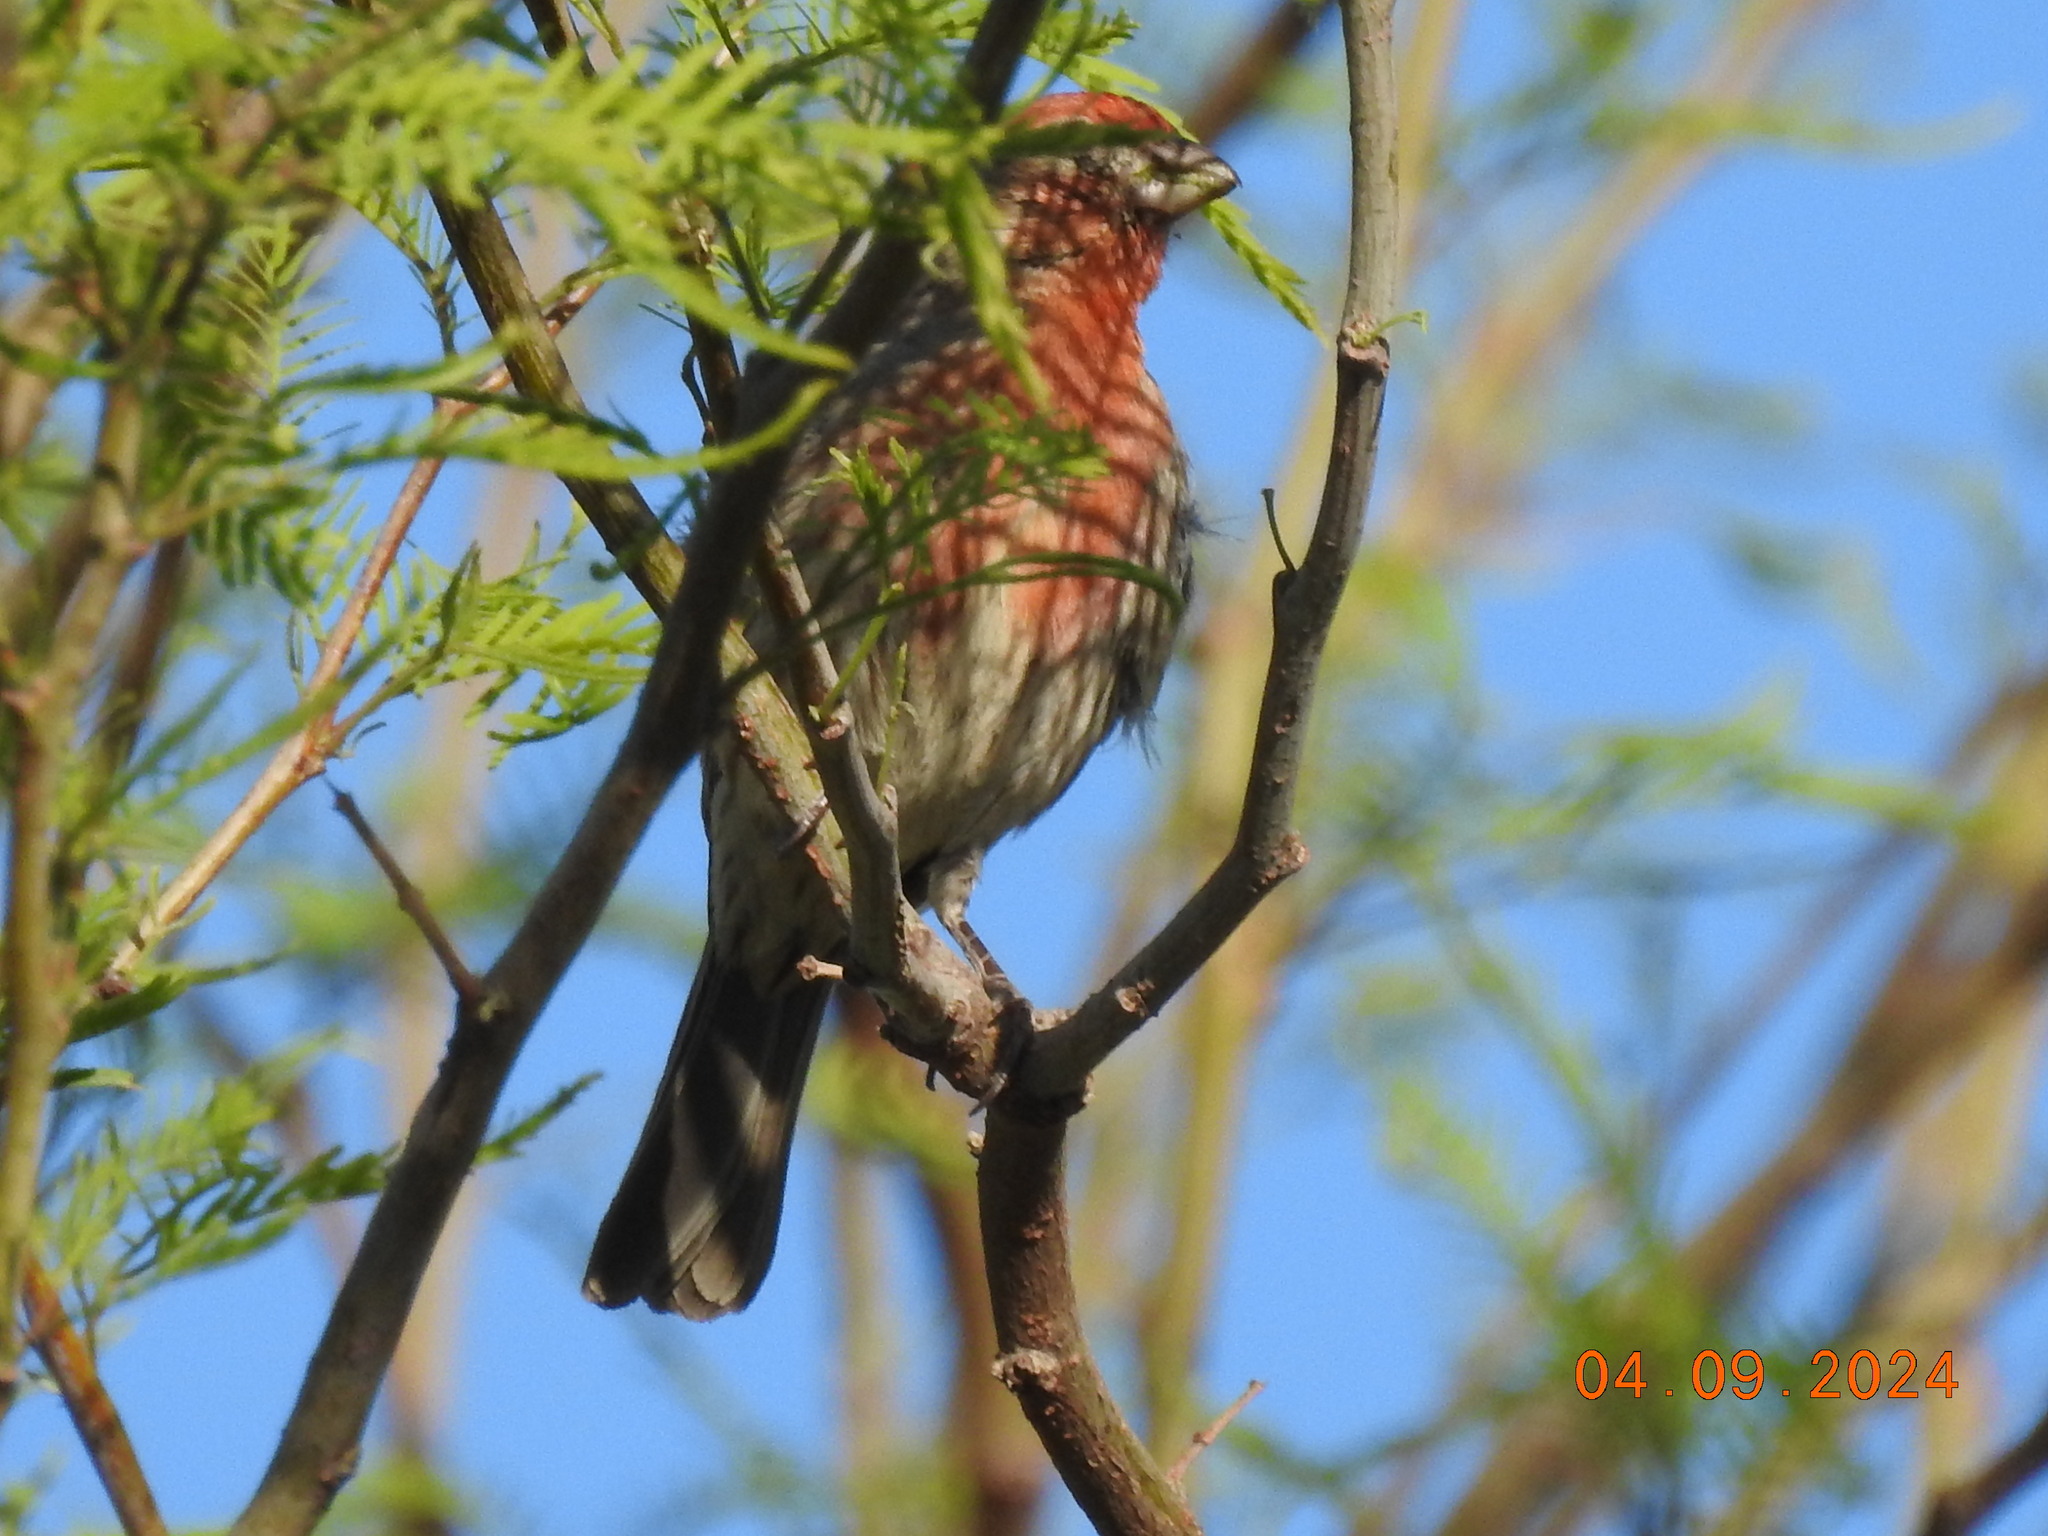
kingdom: Animalia
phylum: Chordata
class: Aves
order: Passeriformes
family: Fringillidae
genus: Haemorhous
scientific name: Haemorhous mexicanus
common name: House finch
